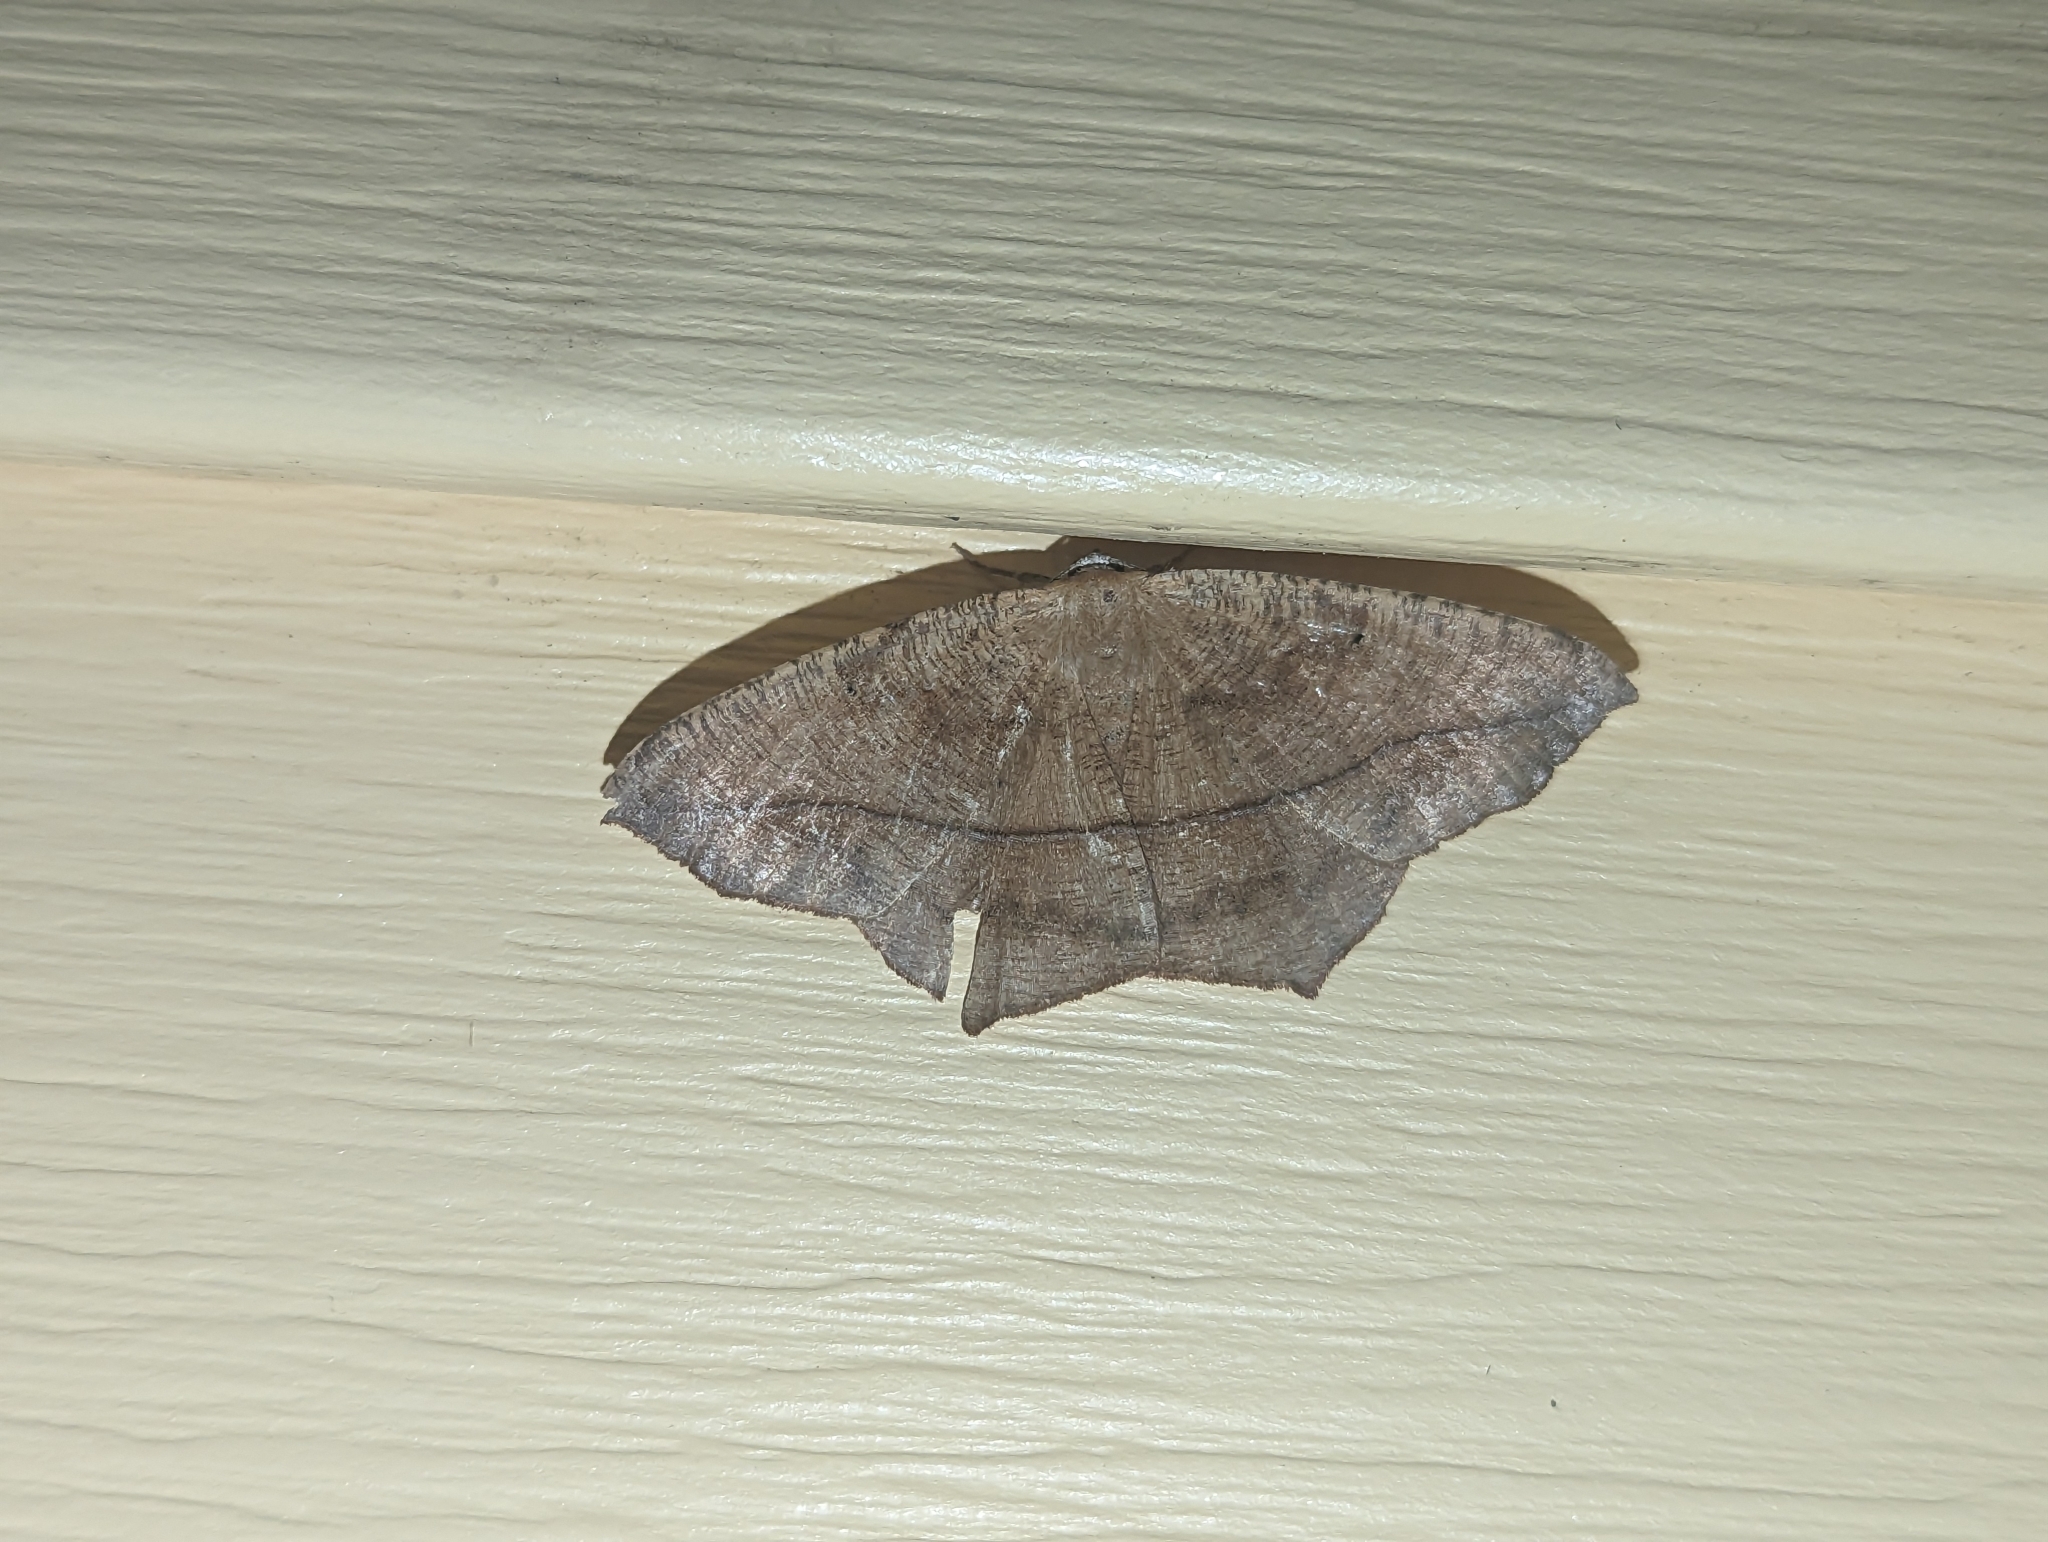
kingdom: Animalia
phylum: Arthropoda
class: Insecta
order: Lepidoptera
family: Geometridae
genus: Prochoerodes
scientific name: Prochoerodes lineola
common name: Large maple spanworm
